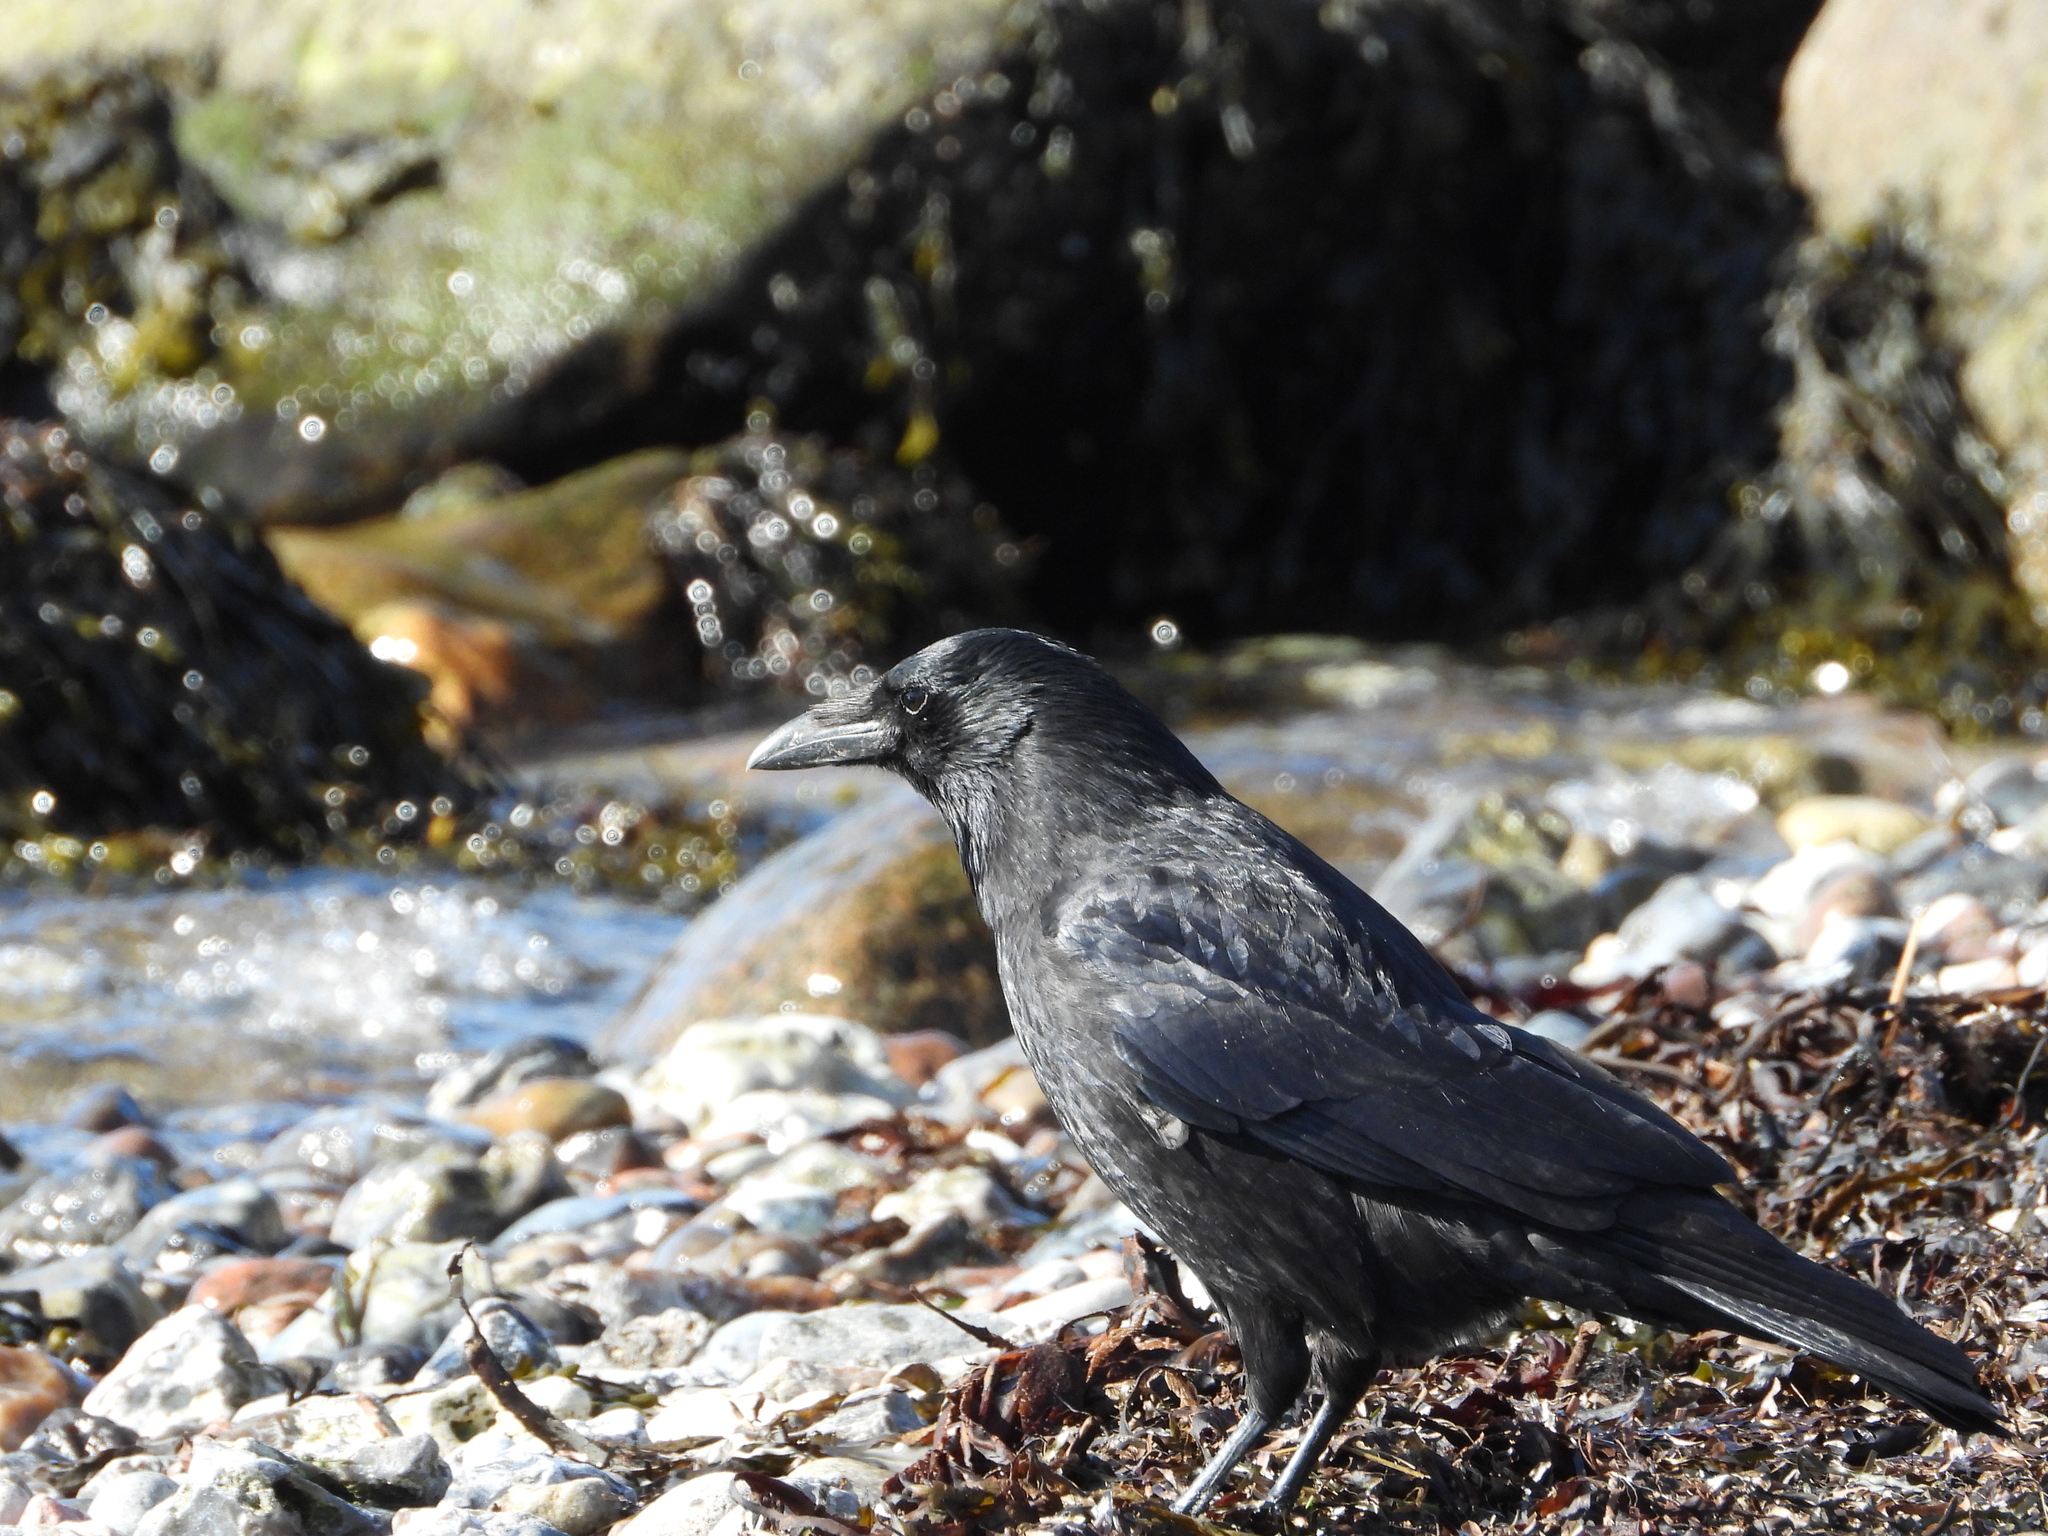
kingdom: Animalia
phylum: Chordata
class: Aves
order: Passeriformes
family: Corvidae
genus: Corvus
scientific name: Corvus corone
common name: Carrion crow
